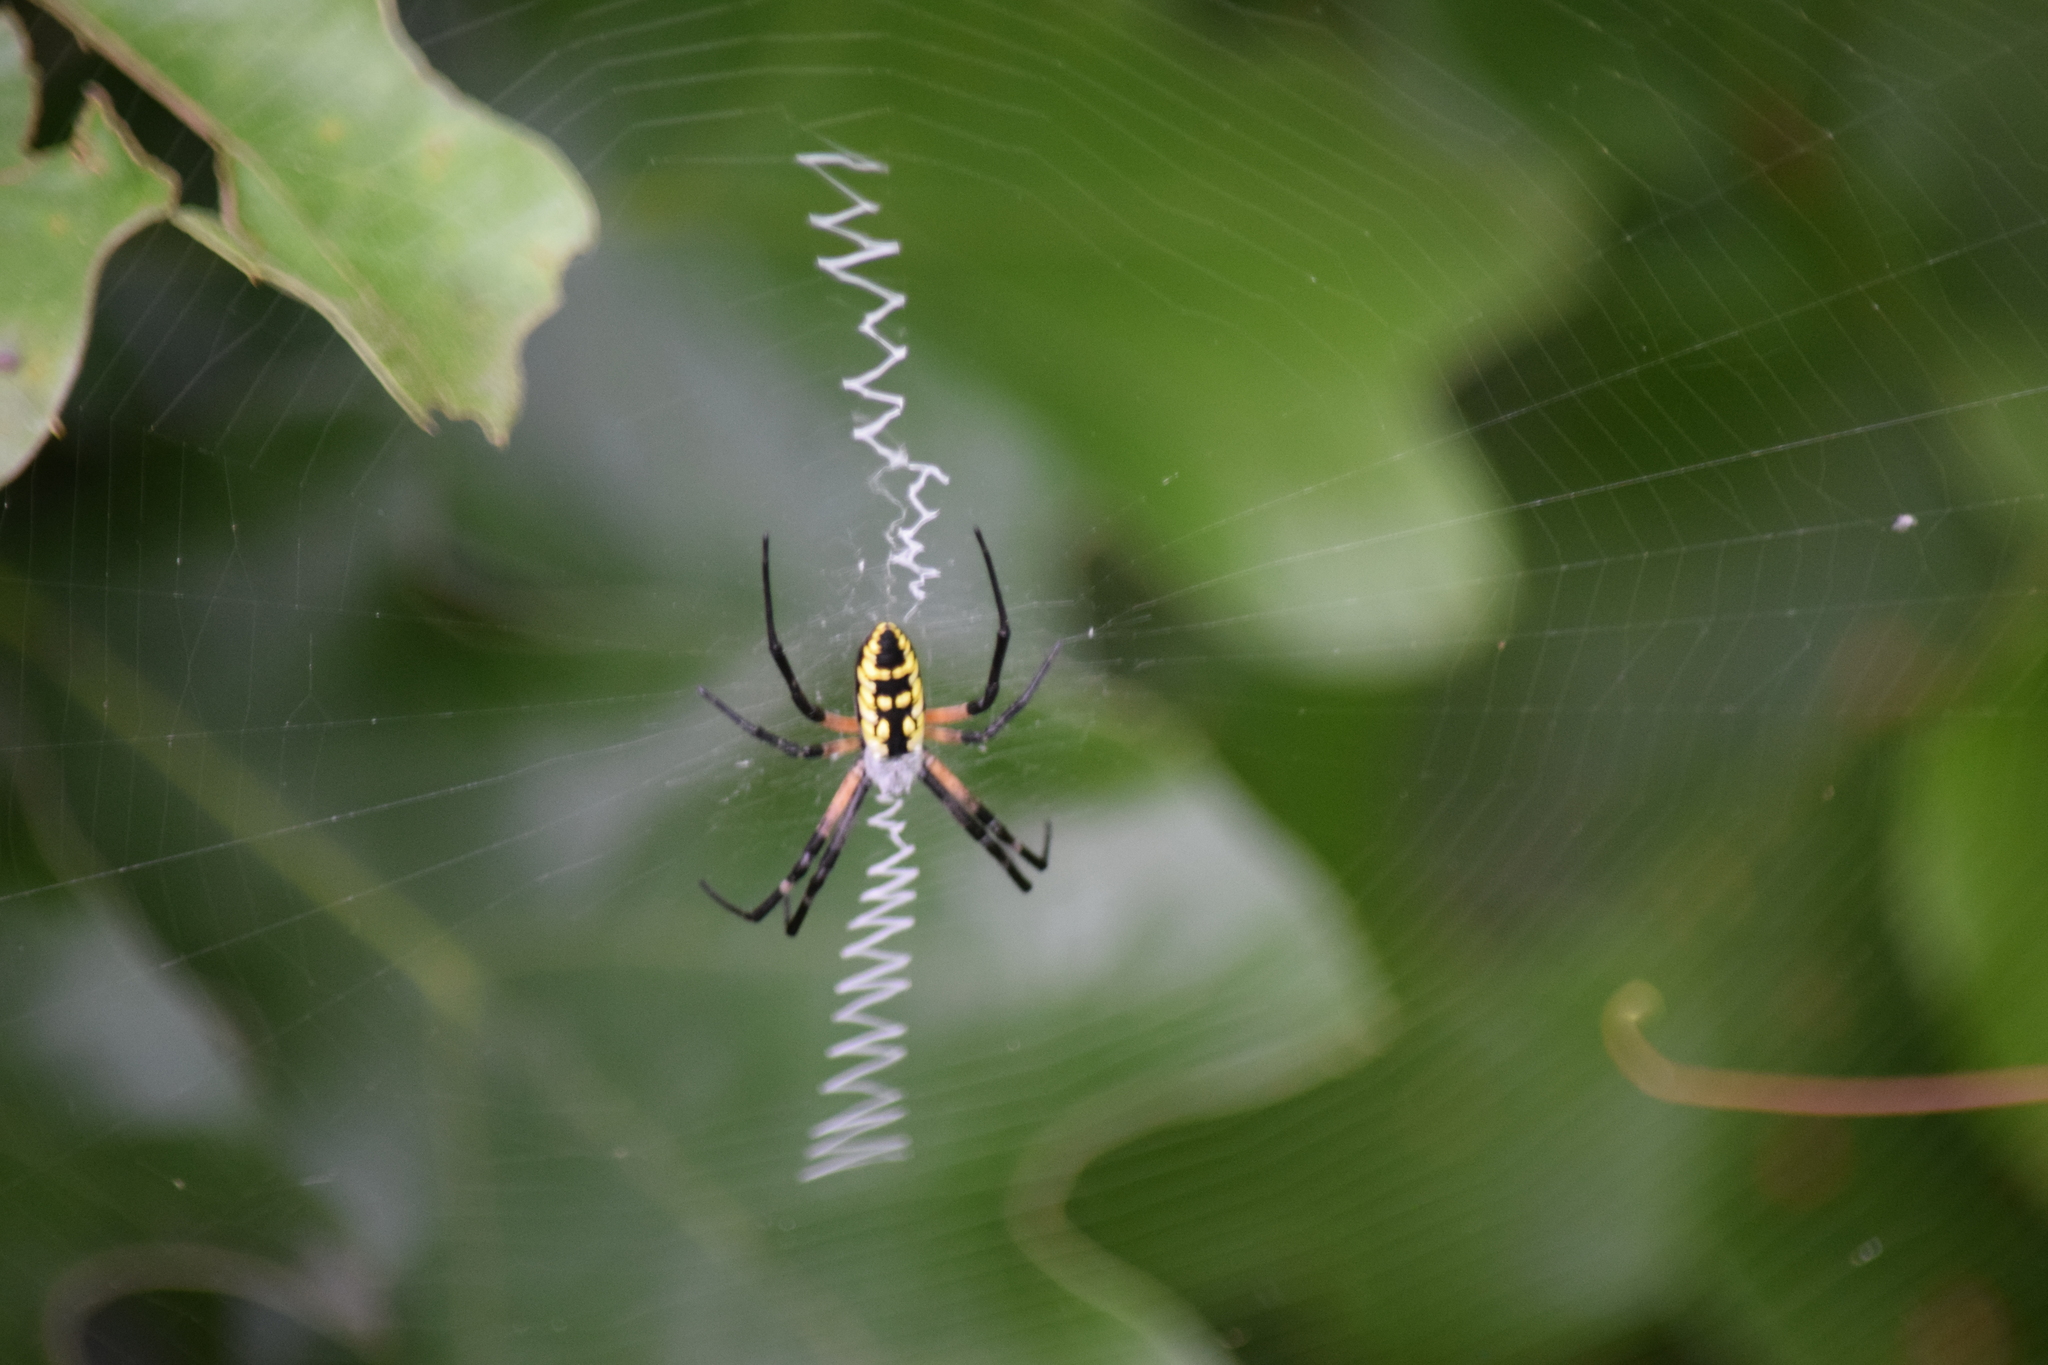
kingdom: Animalia
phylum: Arthropoda
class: Arachnida
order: Araneae
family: Araneidae
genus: Argiope
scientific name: Argiope aurantia
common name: Orb weavers
